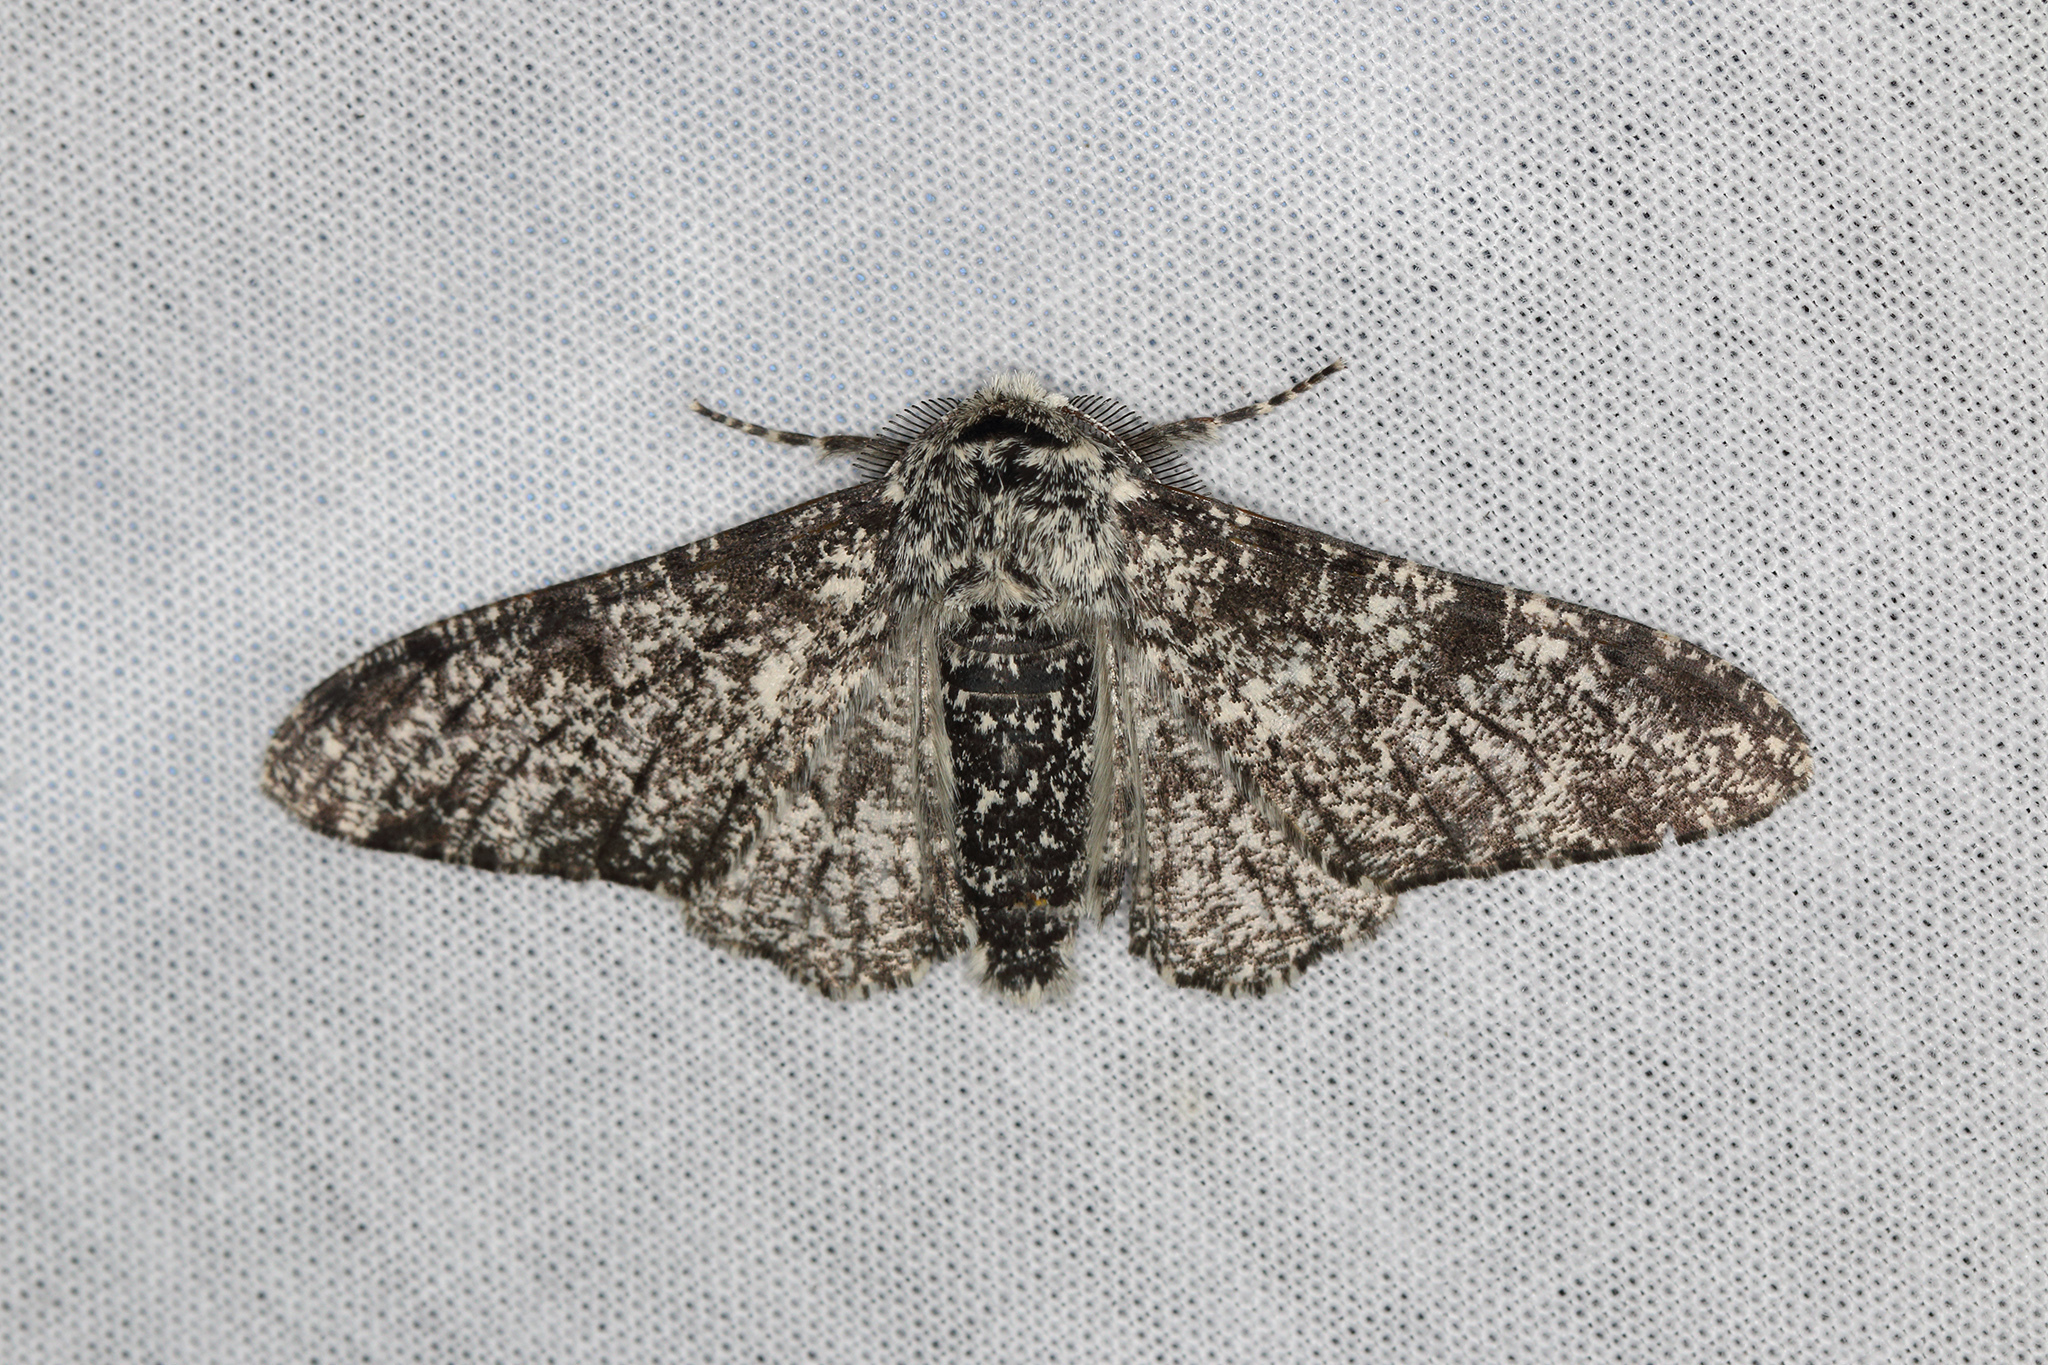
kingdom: Animalia
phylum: Arthropoda
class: Insecta
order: Lepidoptera
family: Geometridae
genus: Biston
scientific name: Biston betularia
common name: Peppered moth
